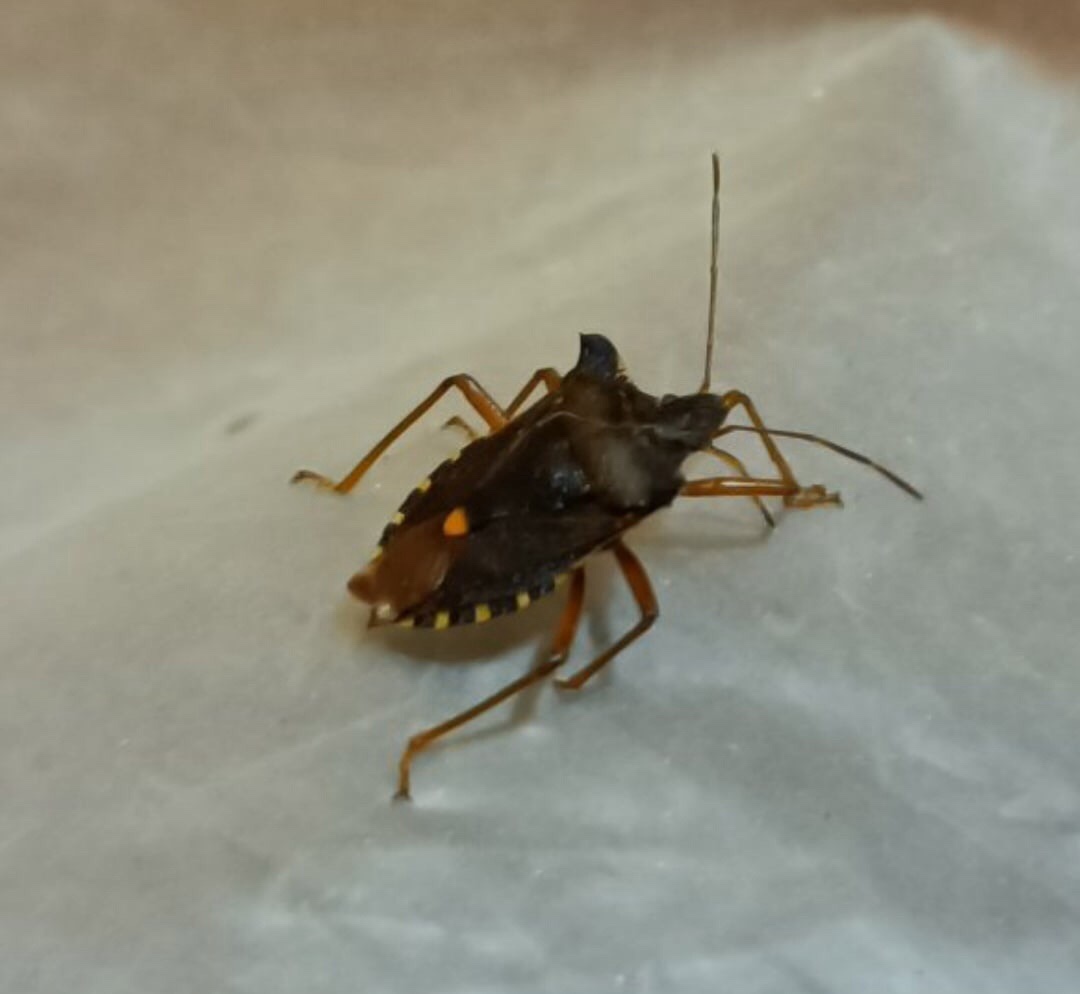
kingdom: Animalia
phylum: Arthropoda
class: Insecta
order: Hemiptera
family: Pentatomidae
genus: Pentatoma
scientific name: Pentatoma rufipes
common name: Forest bug
